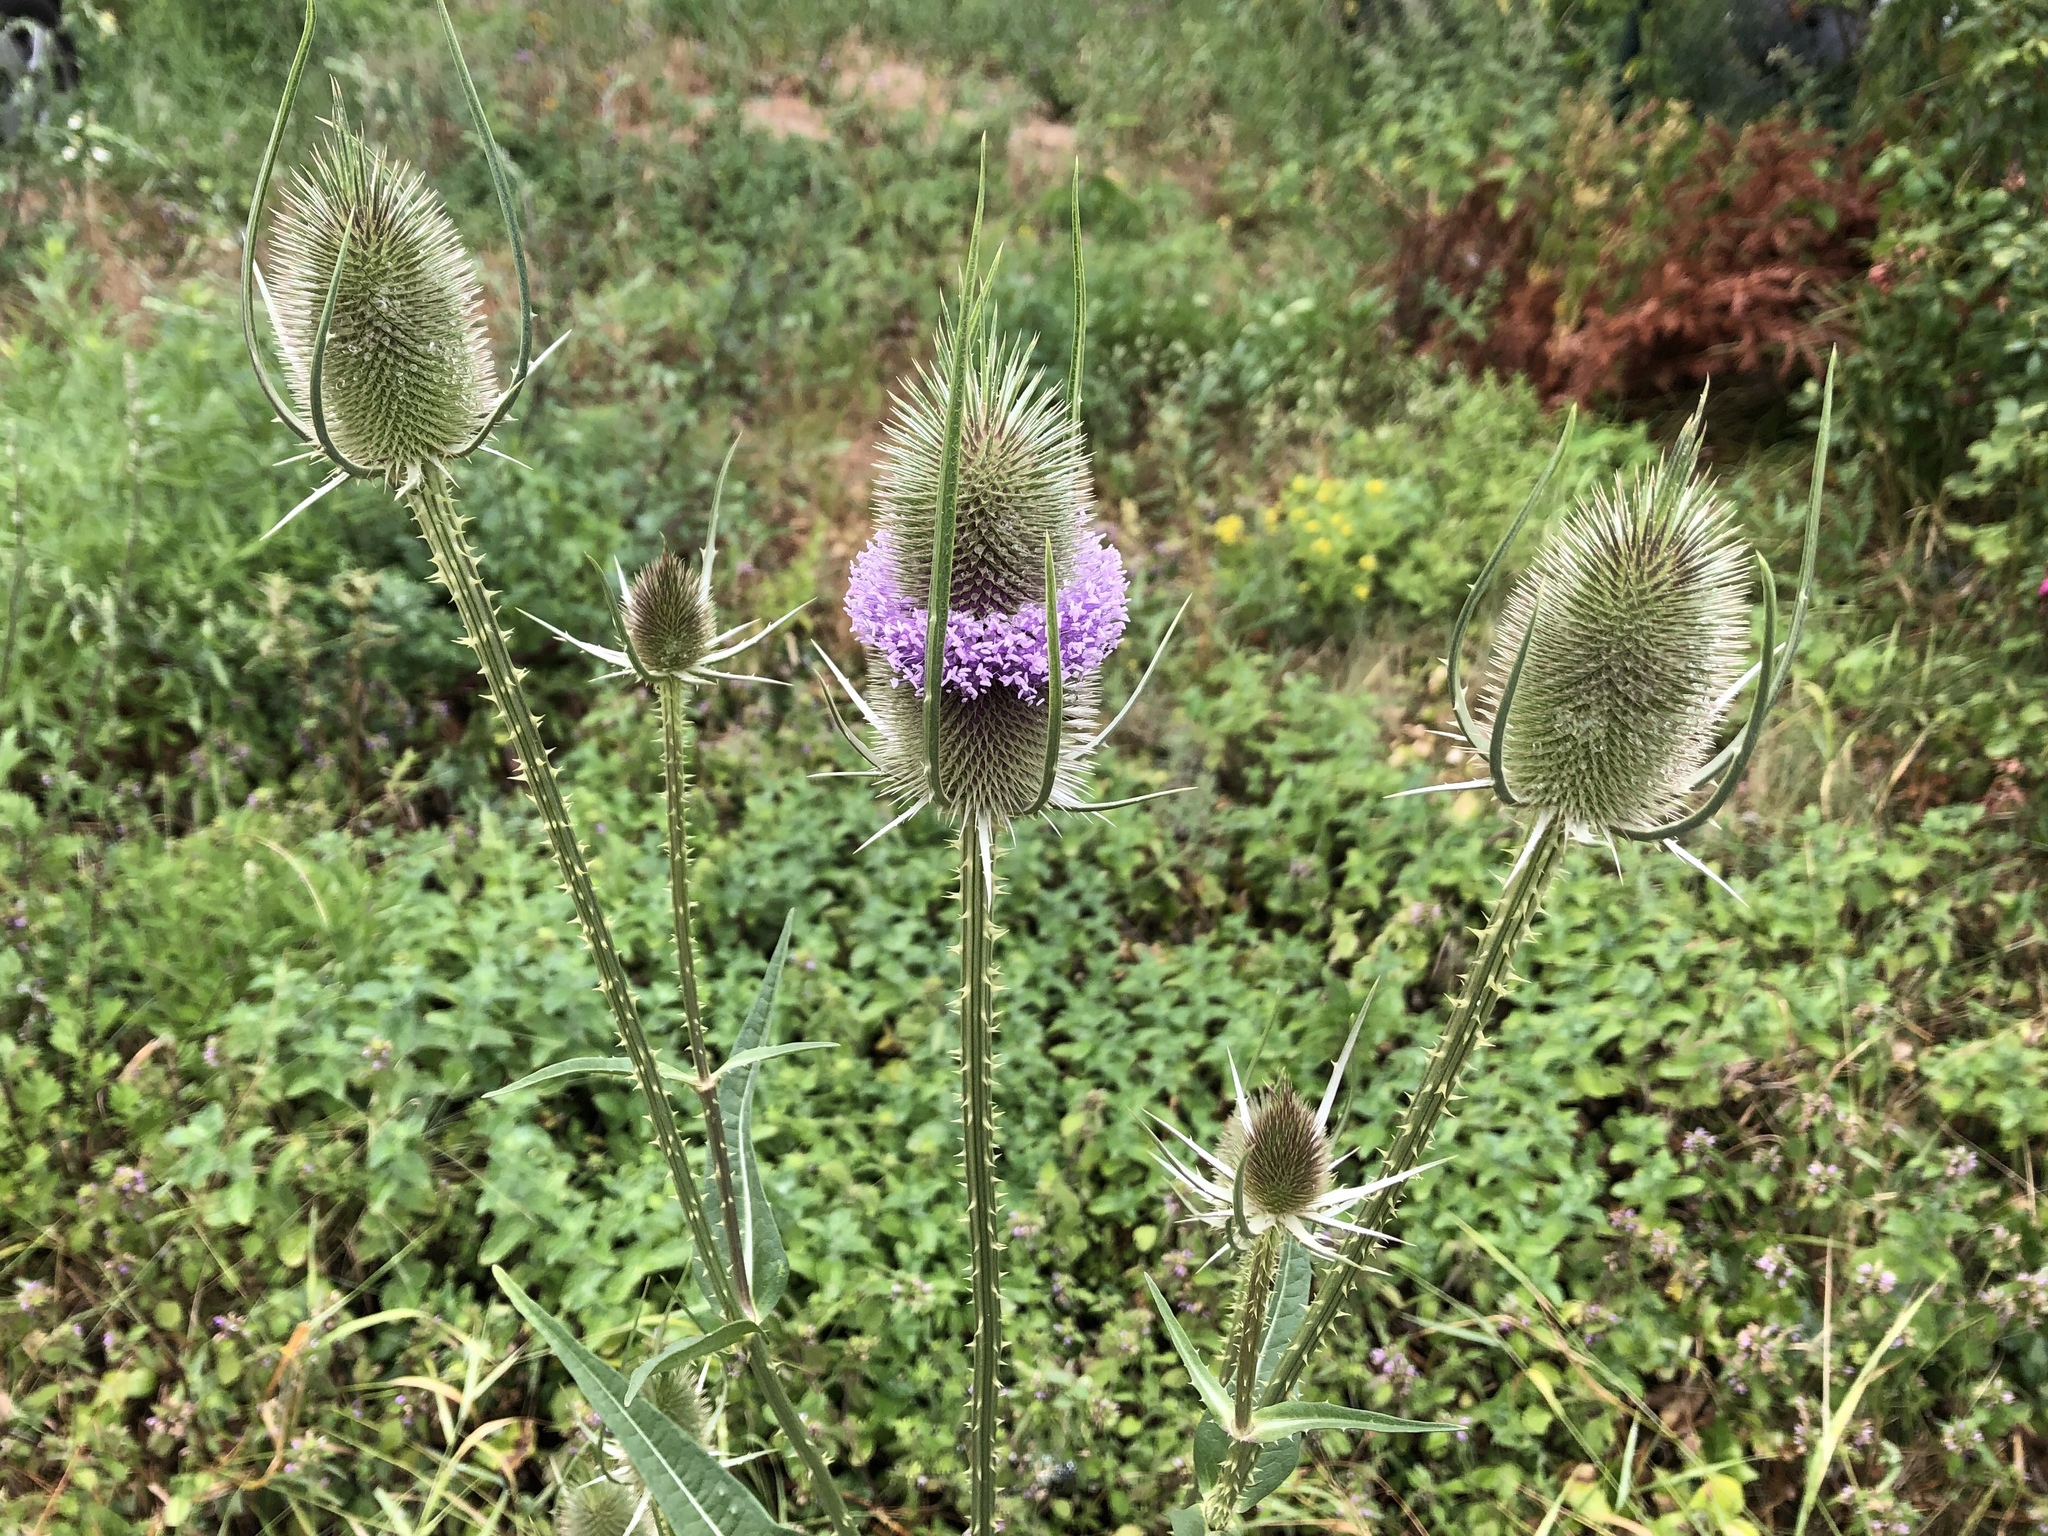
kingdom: Plantae
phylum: Tracheophyta
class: Magnoliopsida
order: Dipsacales
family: Caprifoliaceae
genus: Dipsacus
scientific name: Dipsacus fullonum
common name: Teasel
